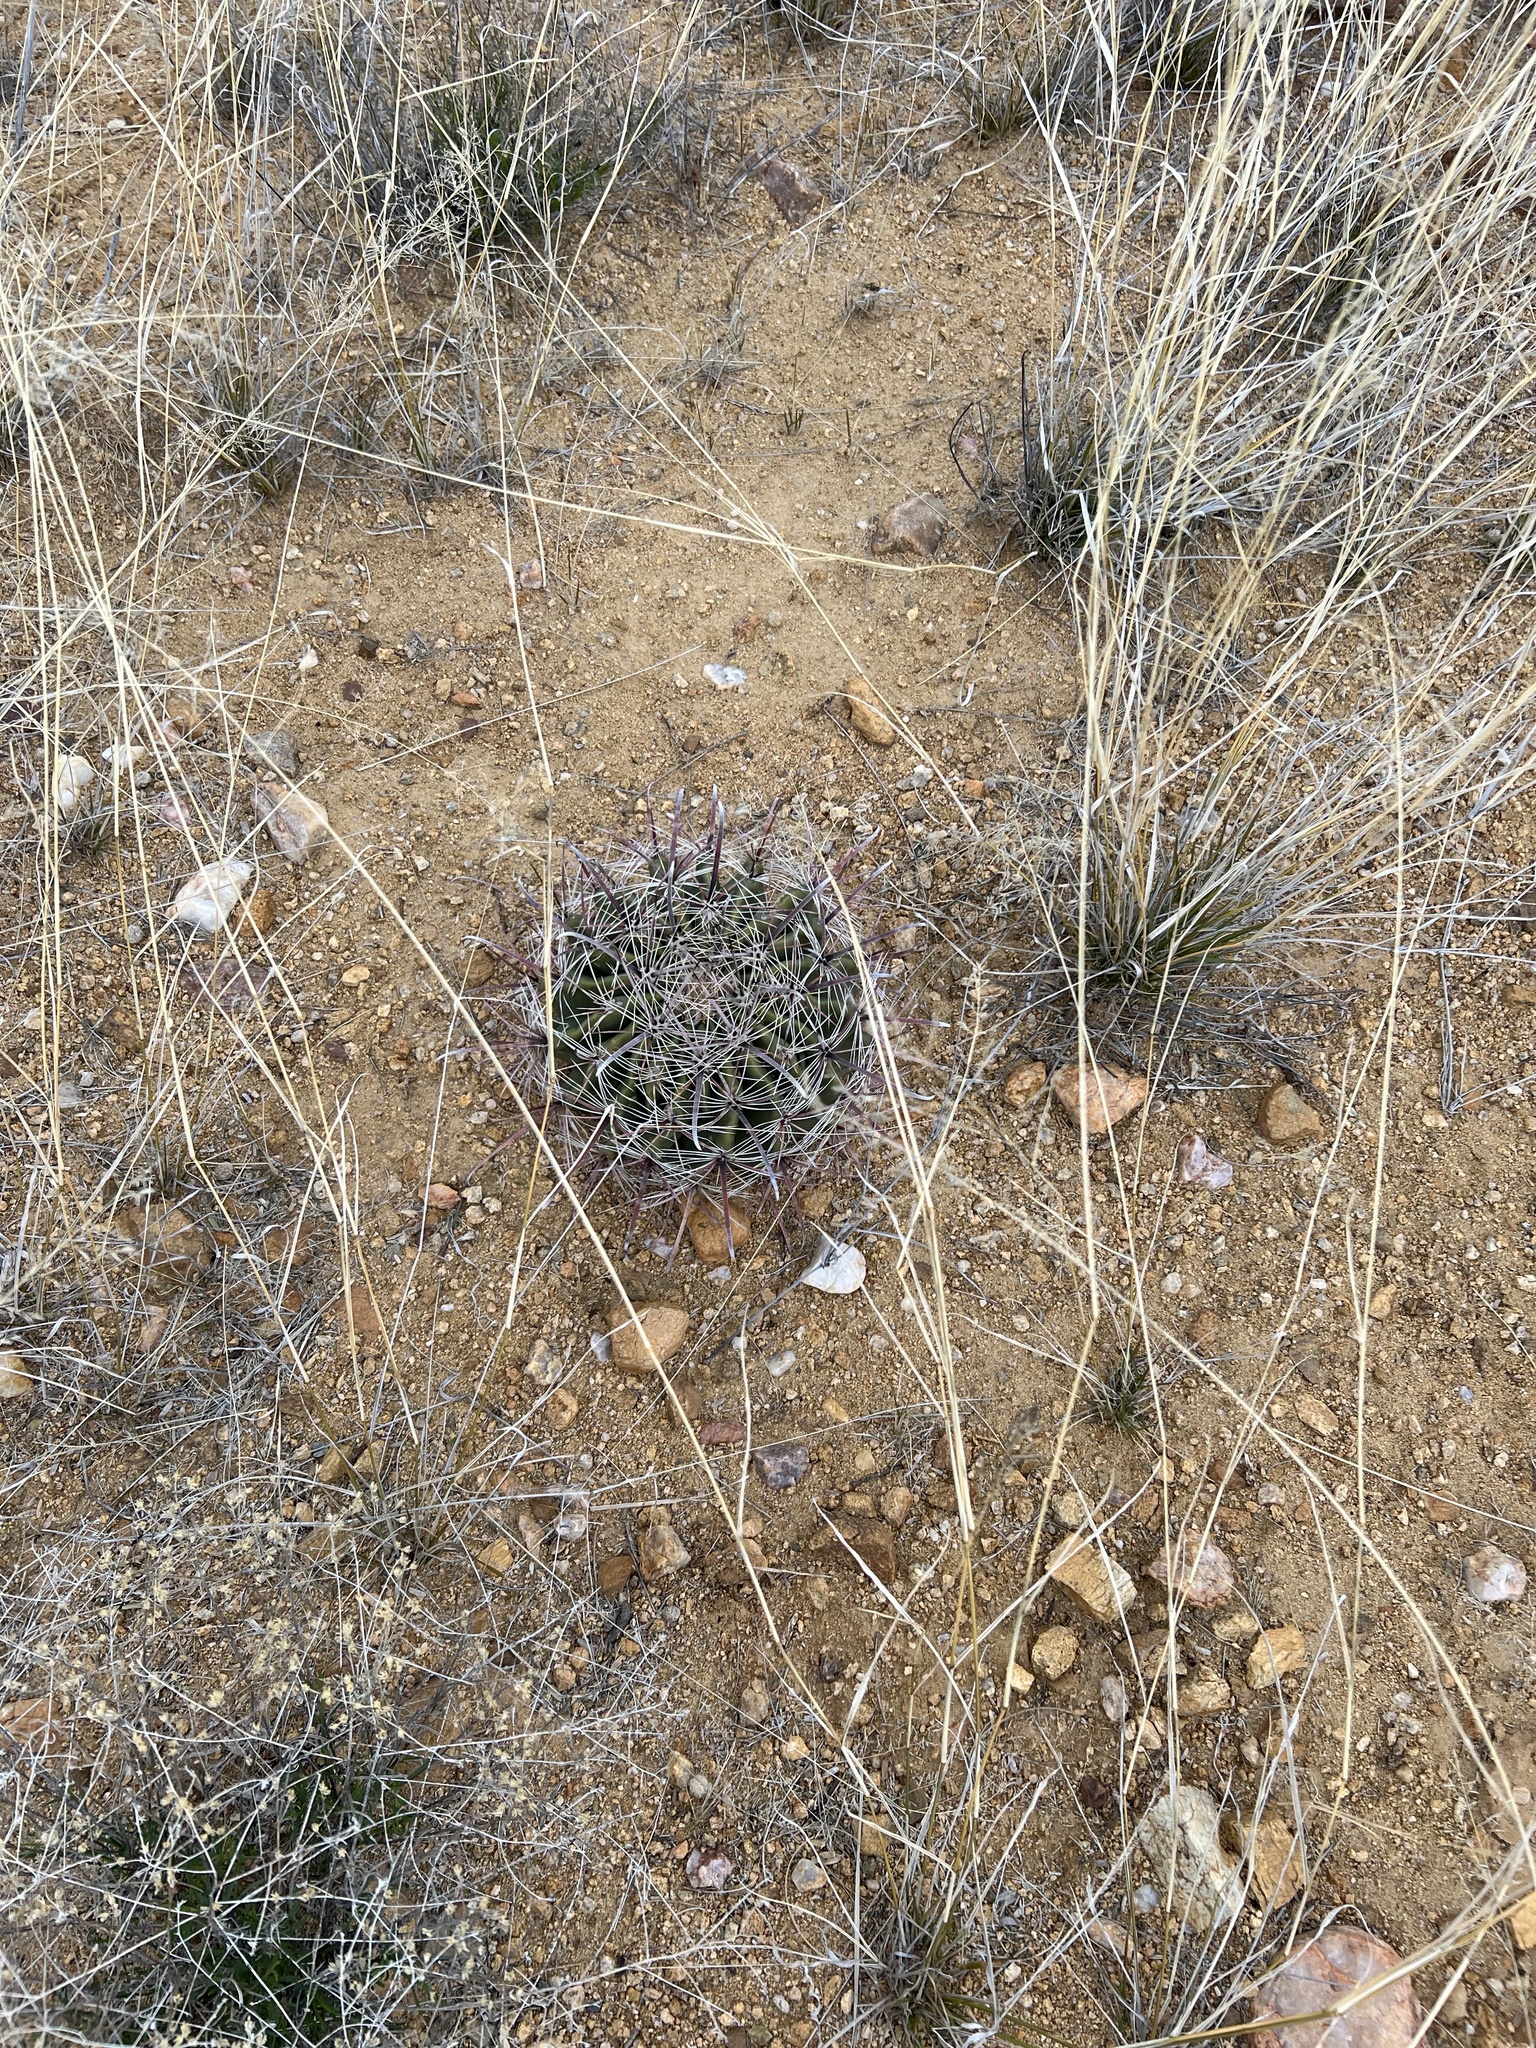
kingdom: Plantae
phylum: Tracheophyta
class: Magnoliopsida
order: Caryophyllales
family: Cactaceae
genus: Ferocactus
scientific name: Ferocactus wislizeni
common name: Candy barrel cactus
